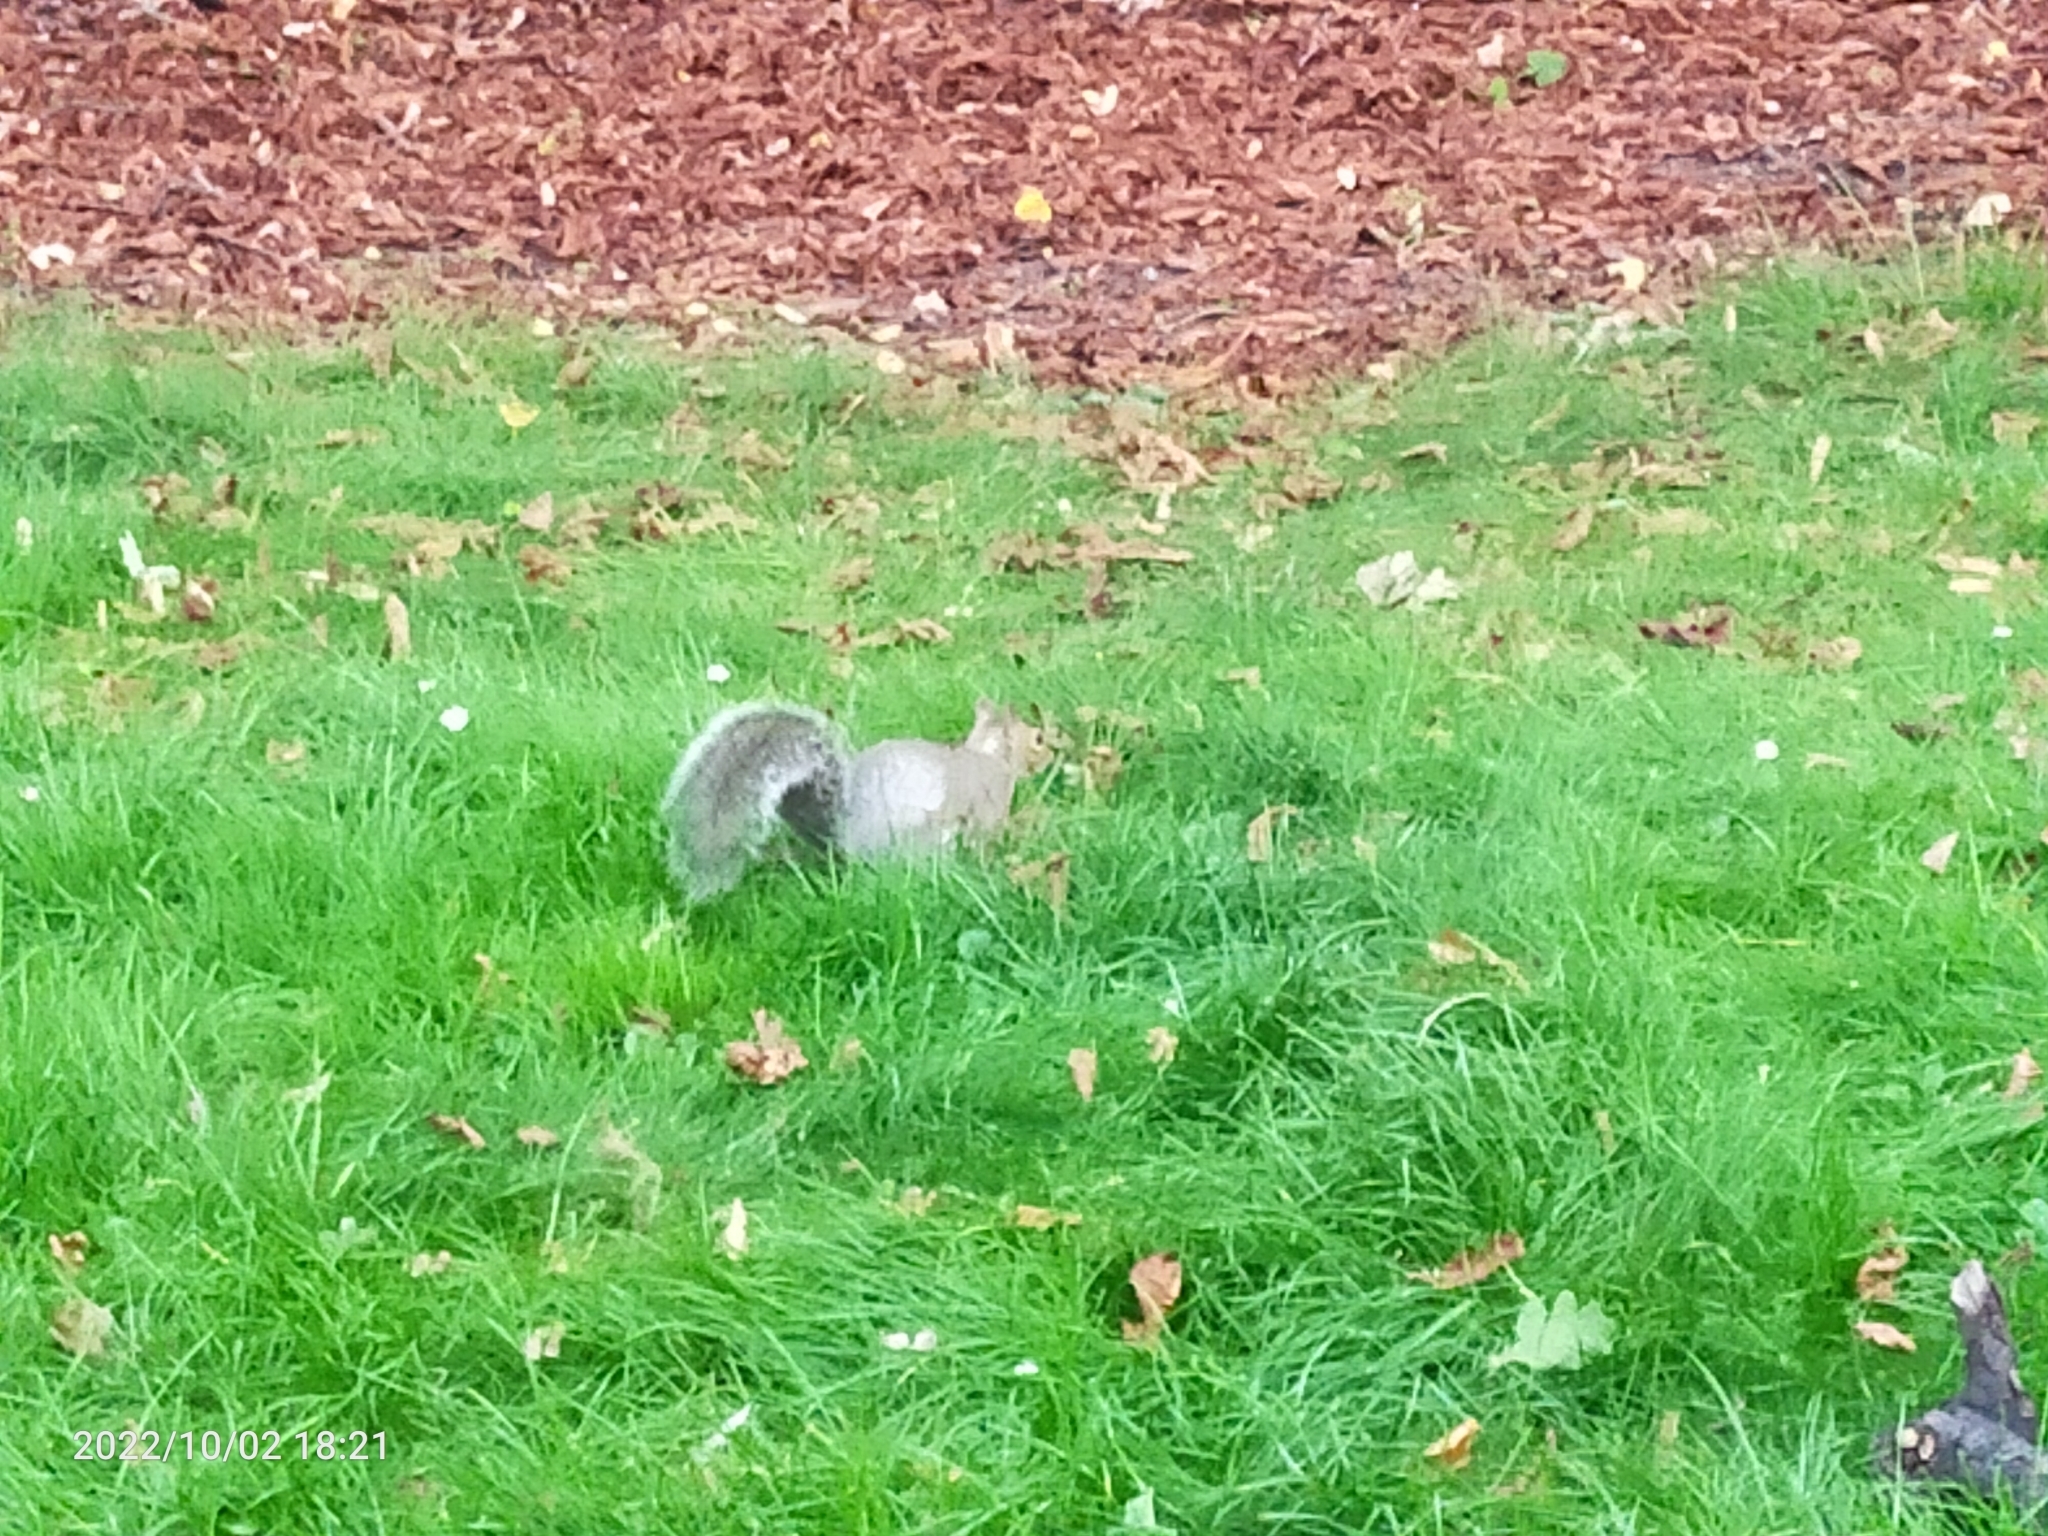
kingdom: Animalia
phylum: Chordata
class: Mammalia
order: Rodentia
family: Sciuridae
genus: Sciurus
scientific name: Sciurus carolinensis
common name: Eastern gray squirrel
